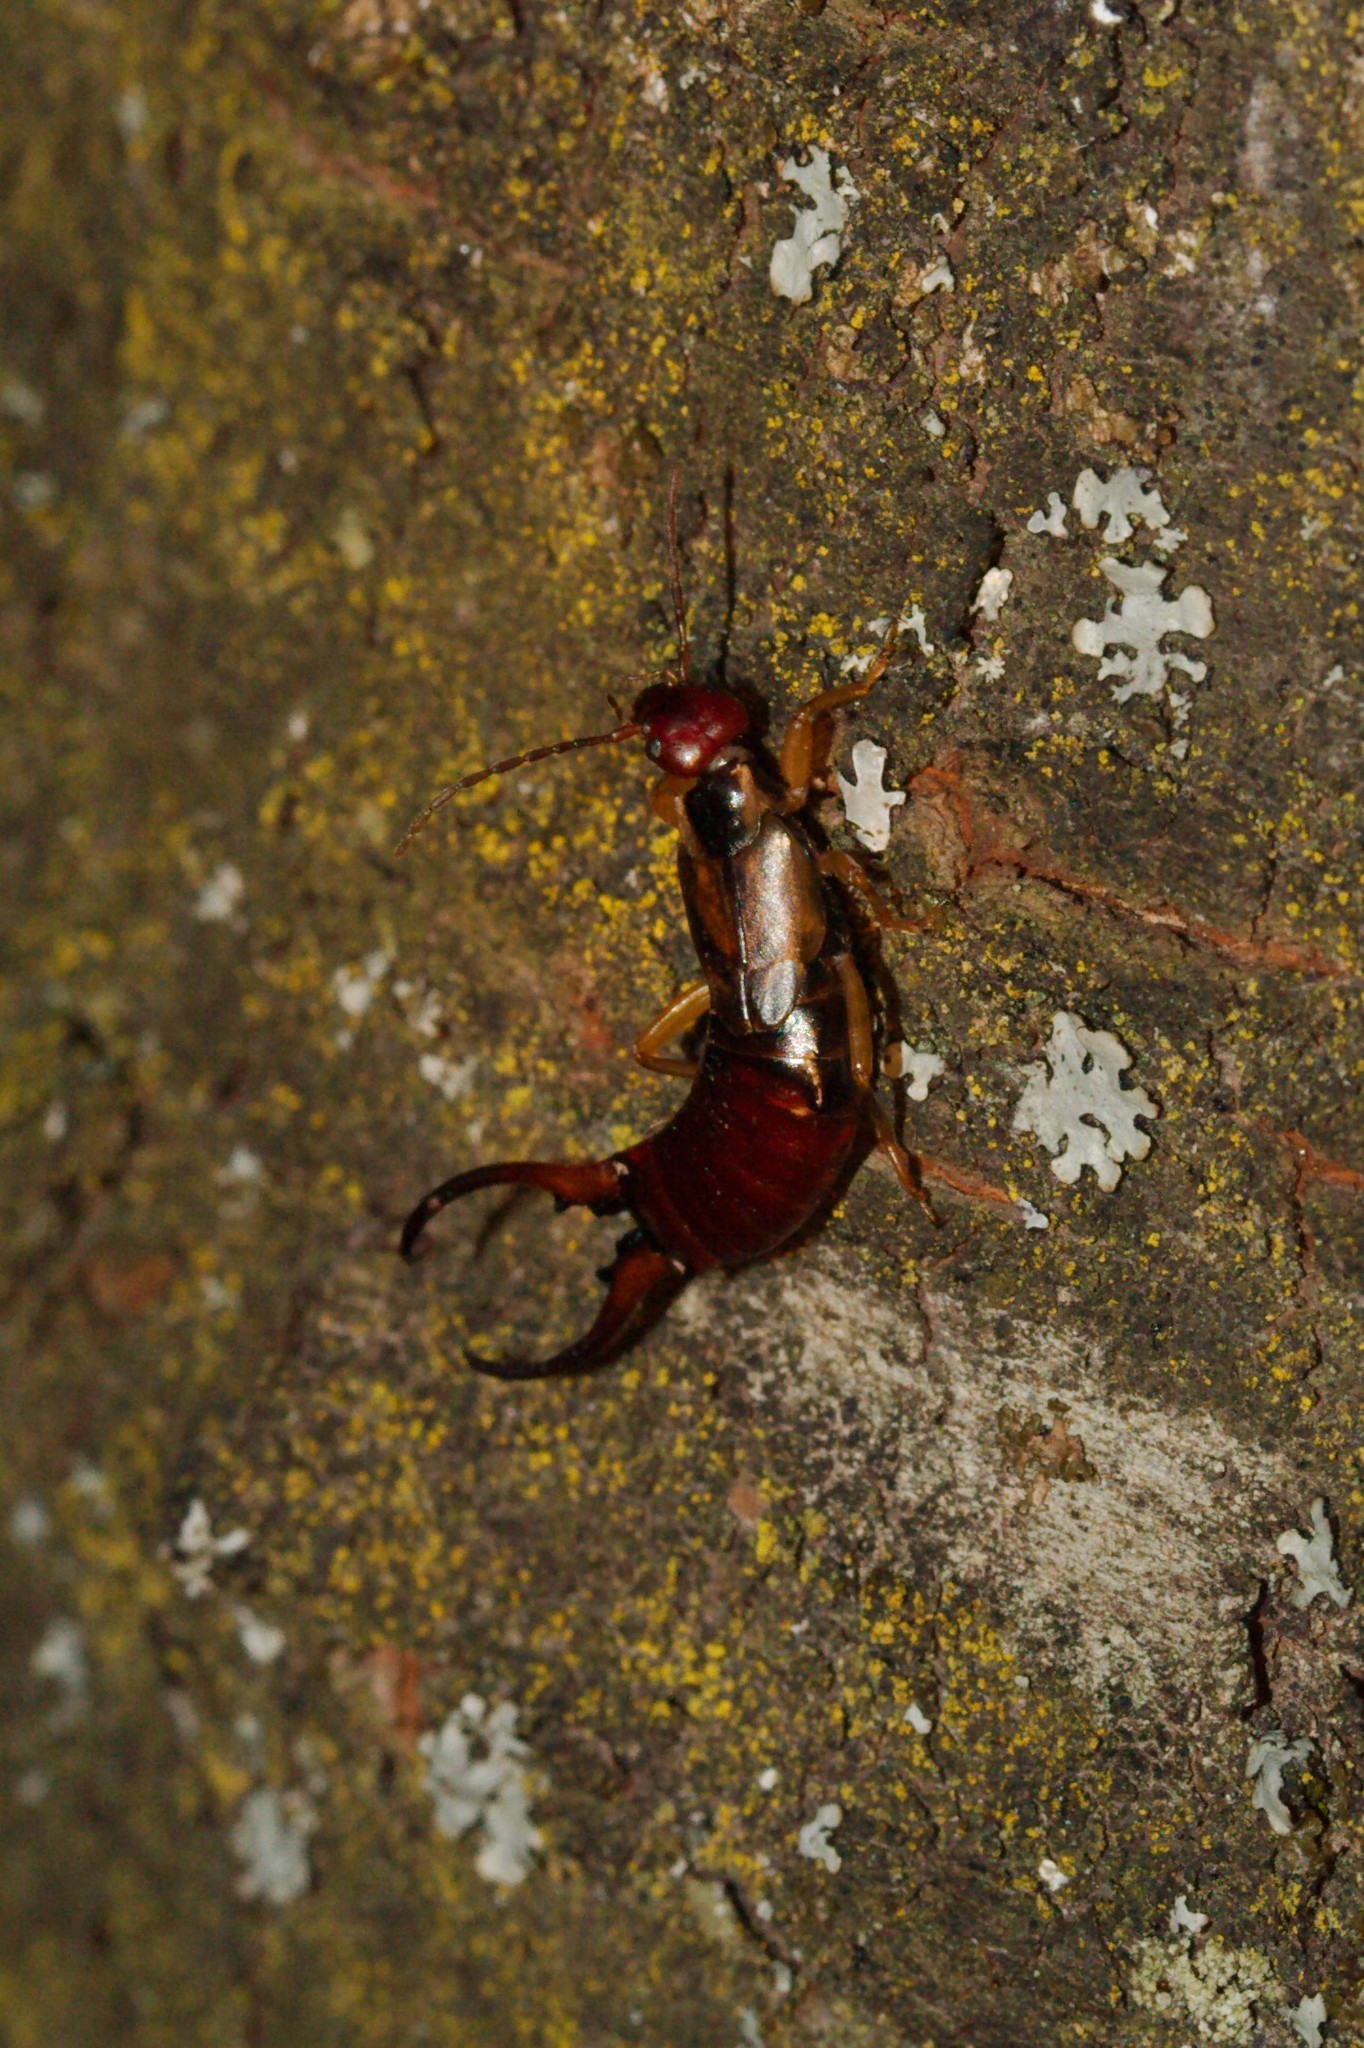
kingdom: Animalia
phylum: Arthropoda
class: Insecta
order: Dermaptera
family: Forficulidae
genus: Forficula
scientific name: Forficula
